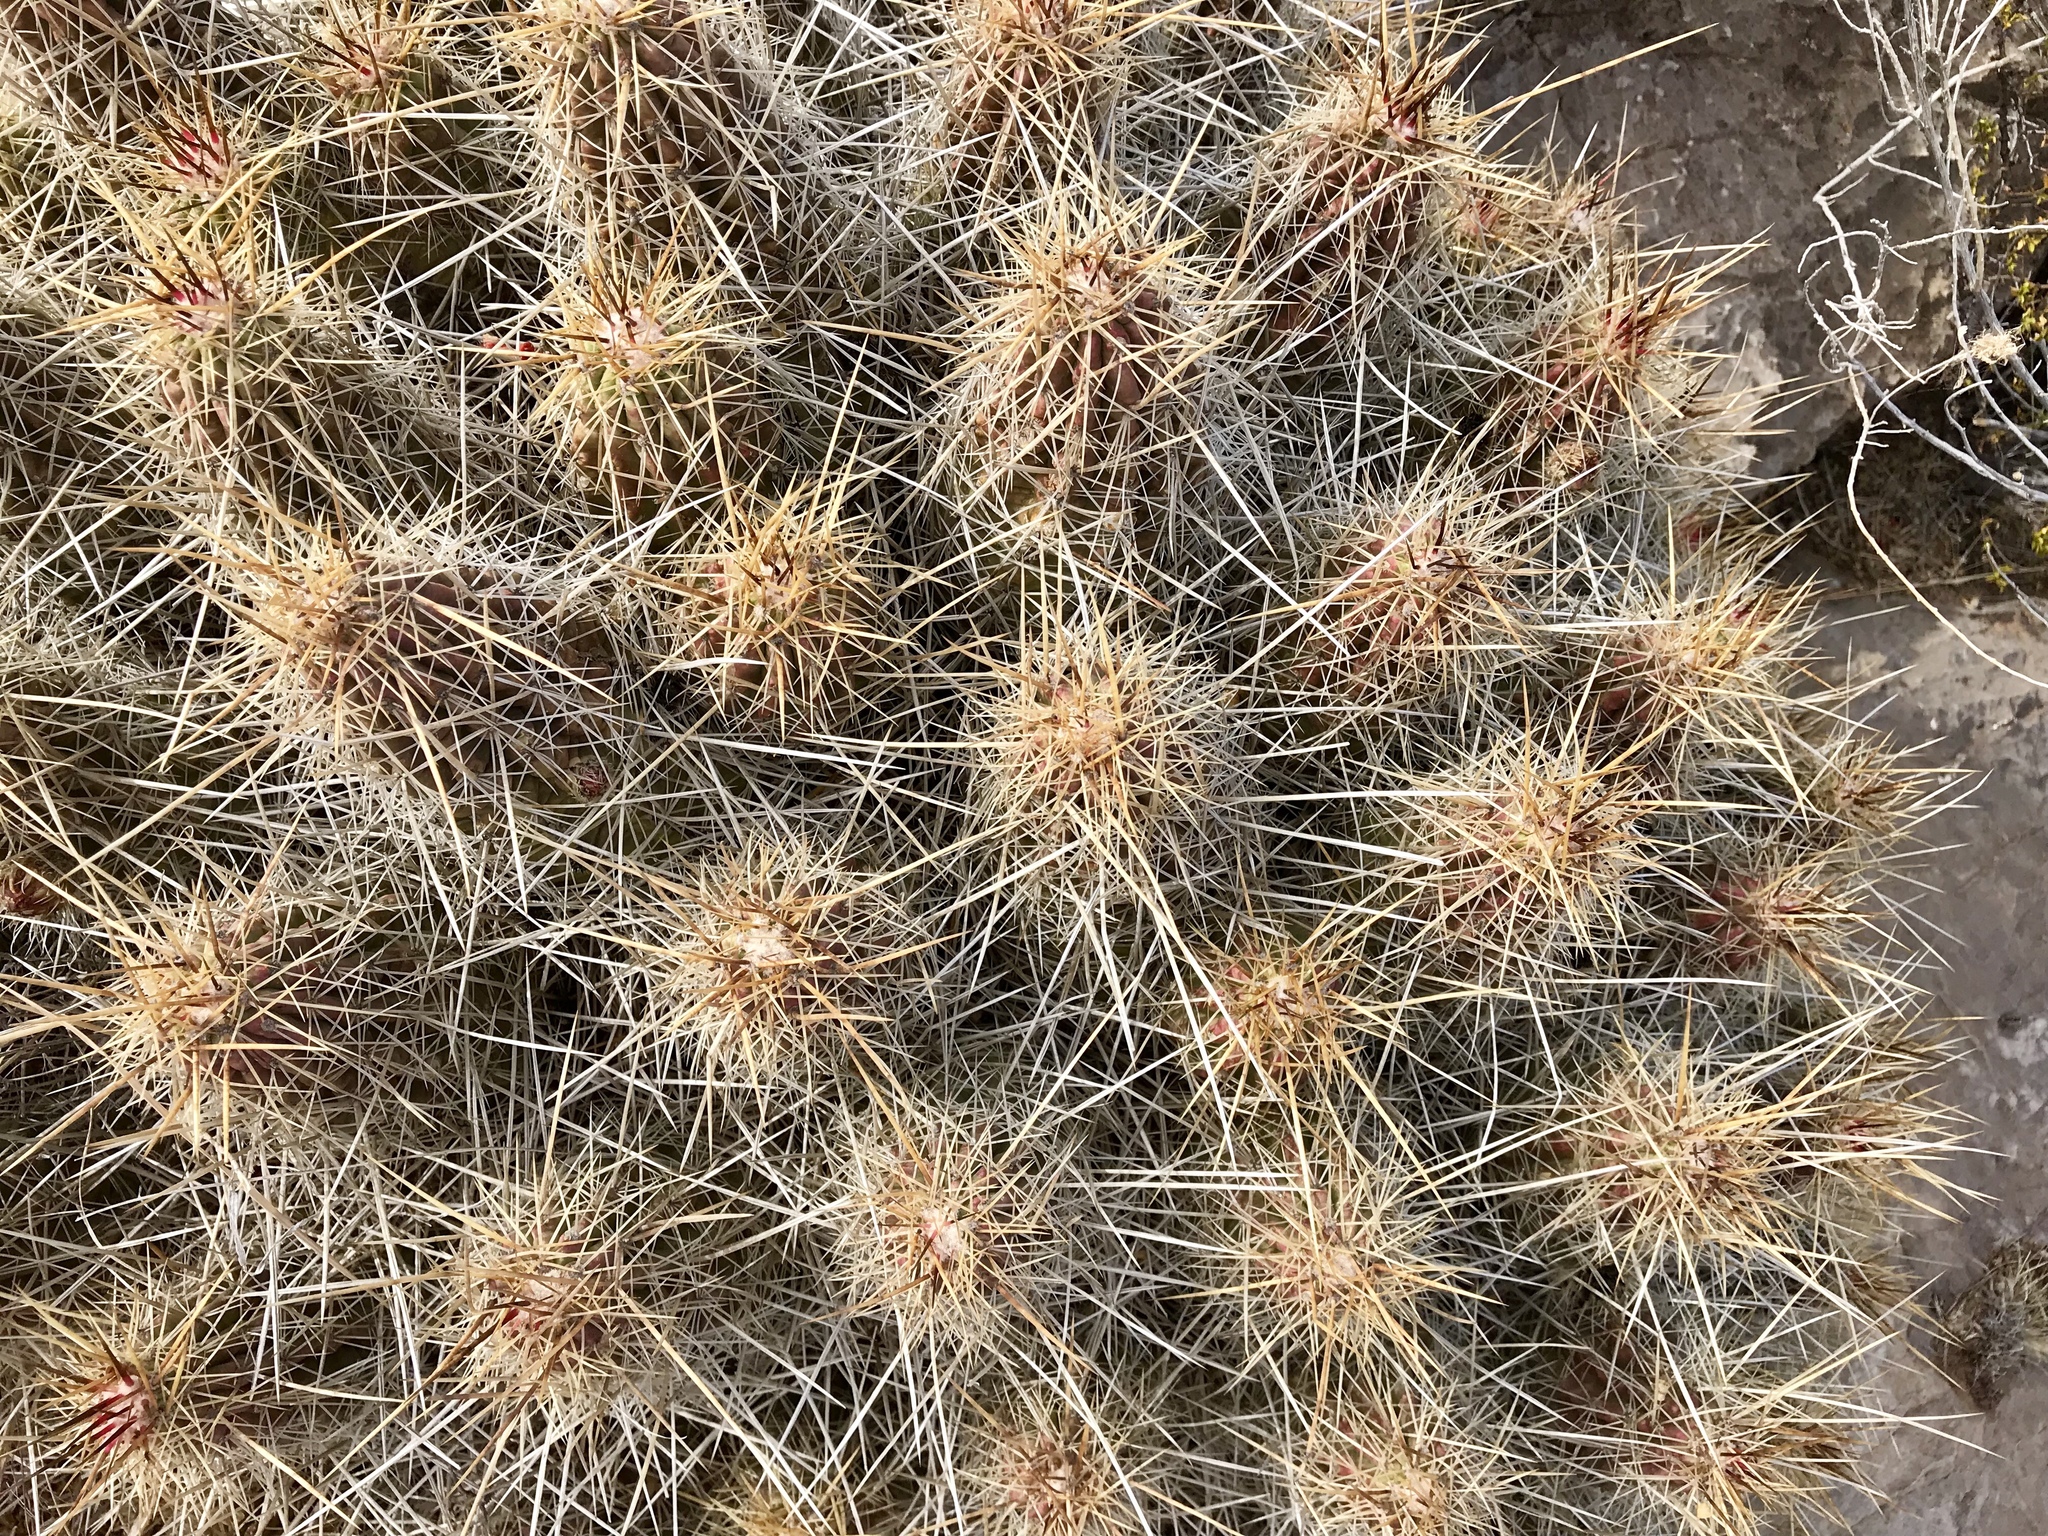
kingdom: Plantae
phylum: Tracheophyta
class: Magnoliopsida
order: Caryophyllales
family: Cactaceae
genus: Echinocereus
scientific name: Echinocereus stramineus
